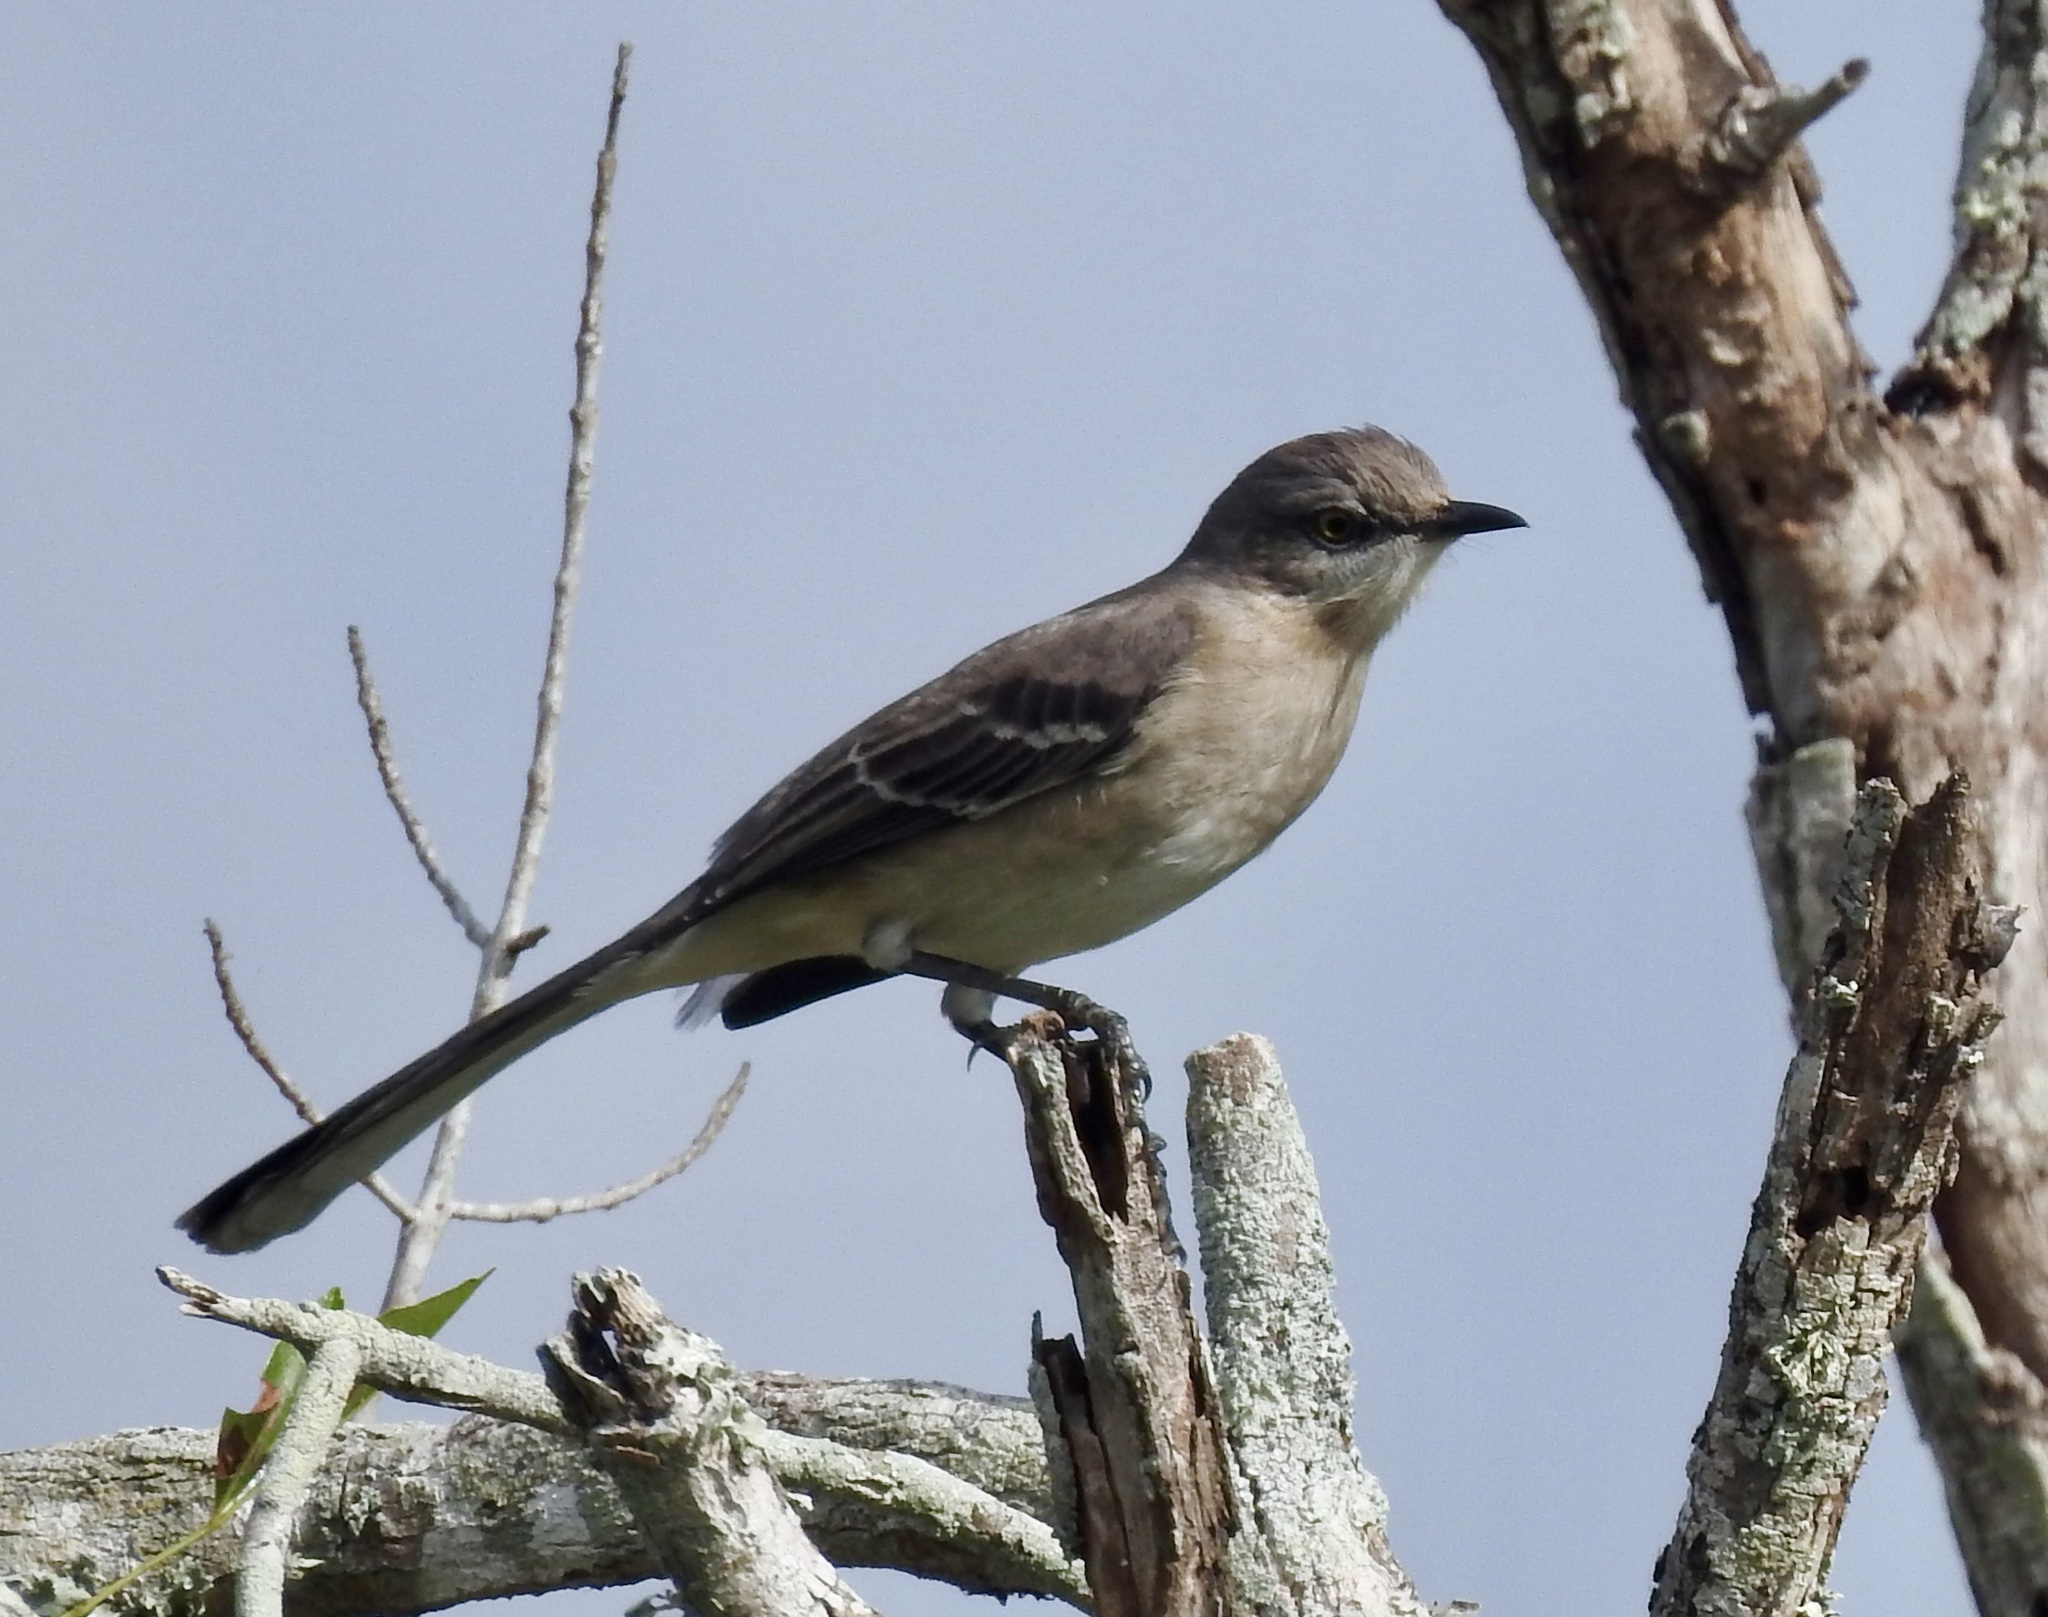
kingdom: Animalia
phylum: Chordata
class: Aves
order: Passeriformes
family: Mimidae
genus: Mimus
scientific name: Mimus polyglottos
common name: Northern mockingbird
